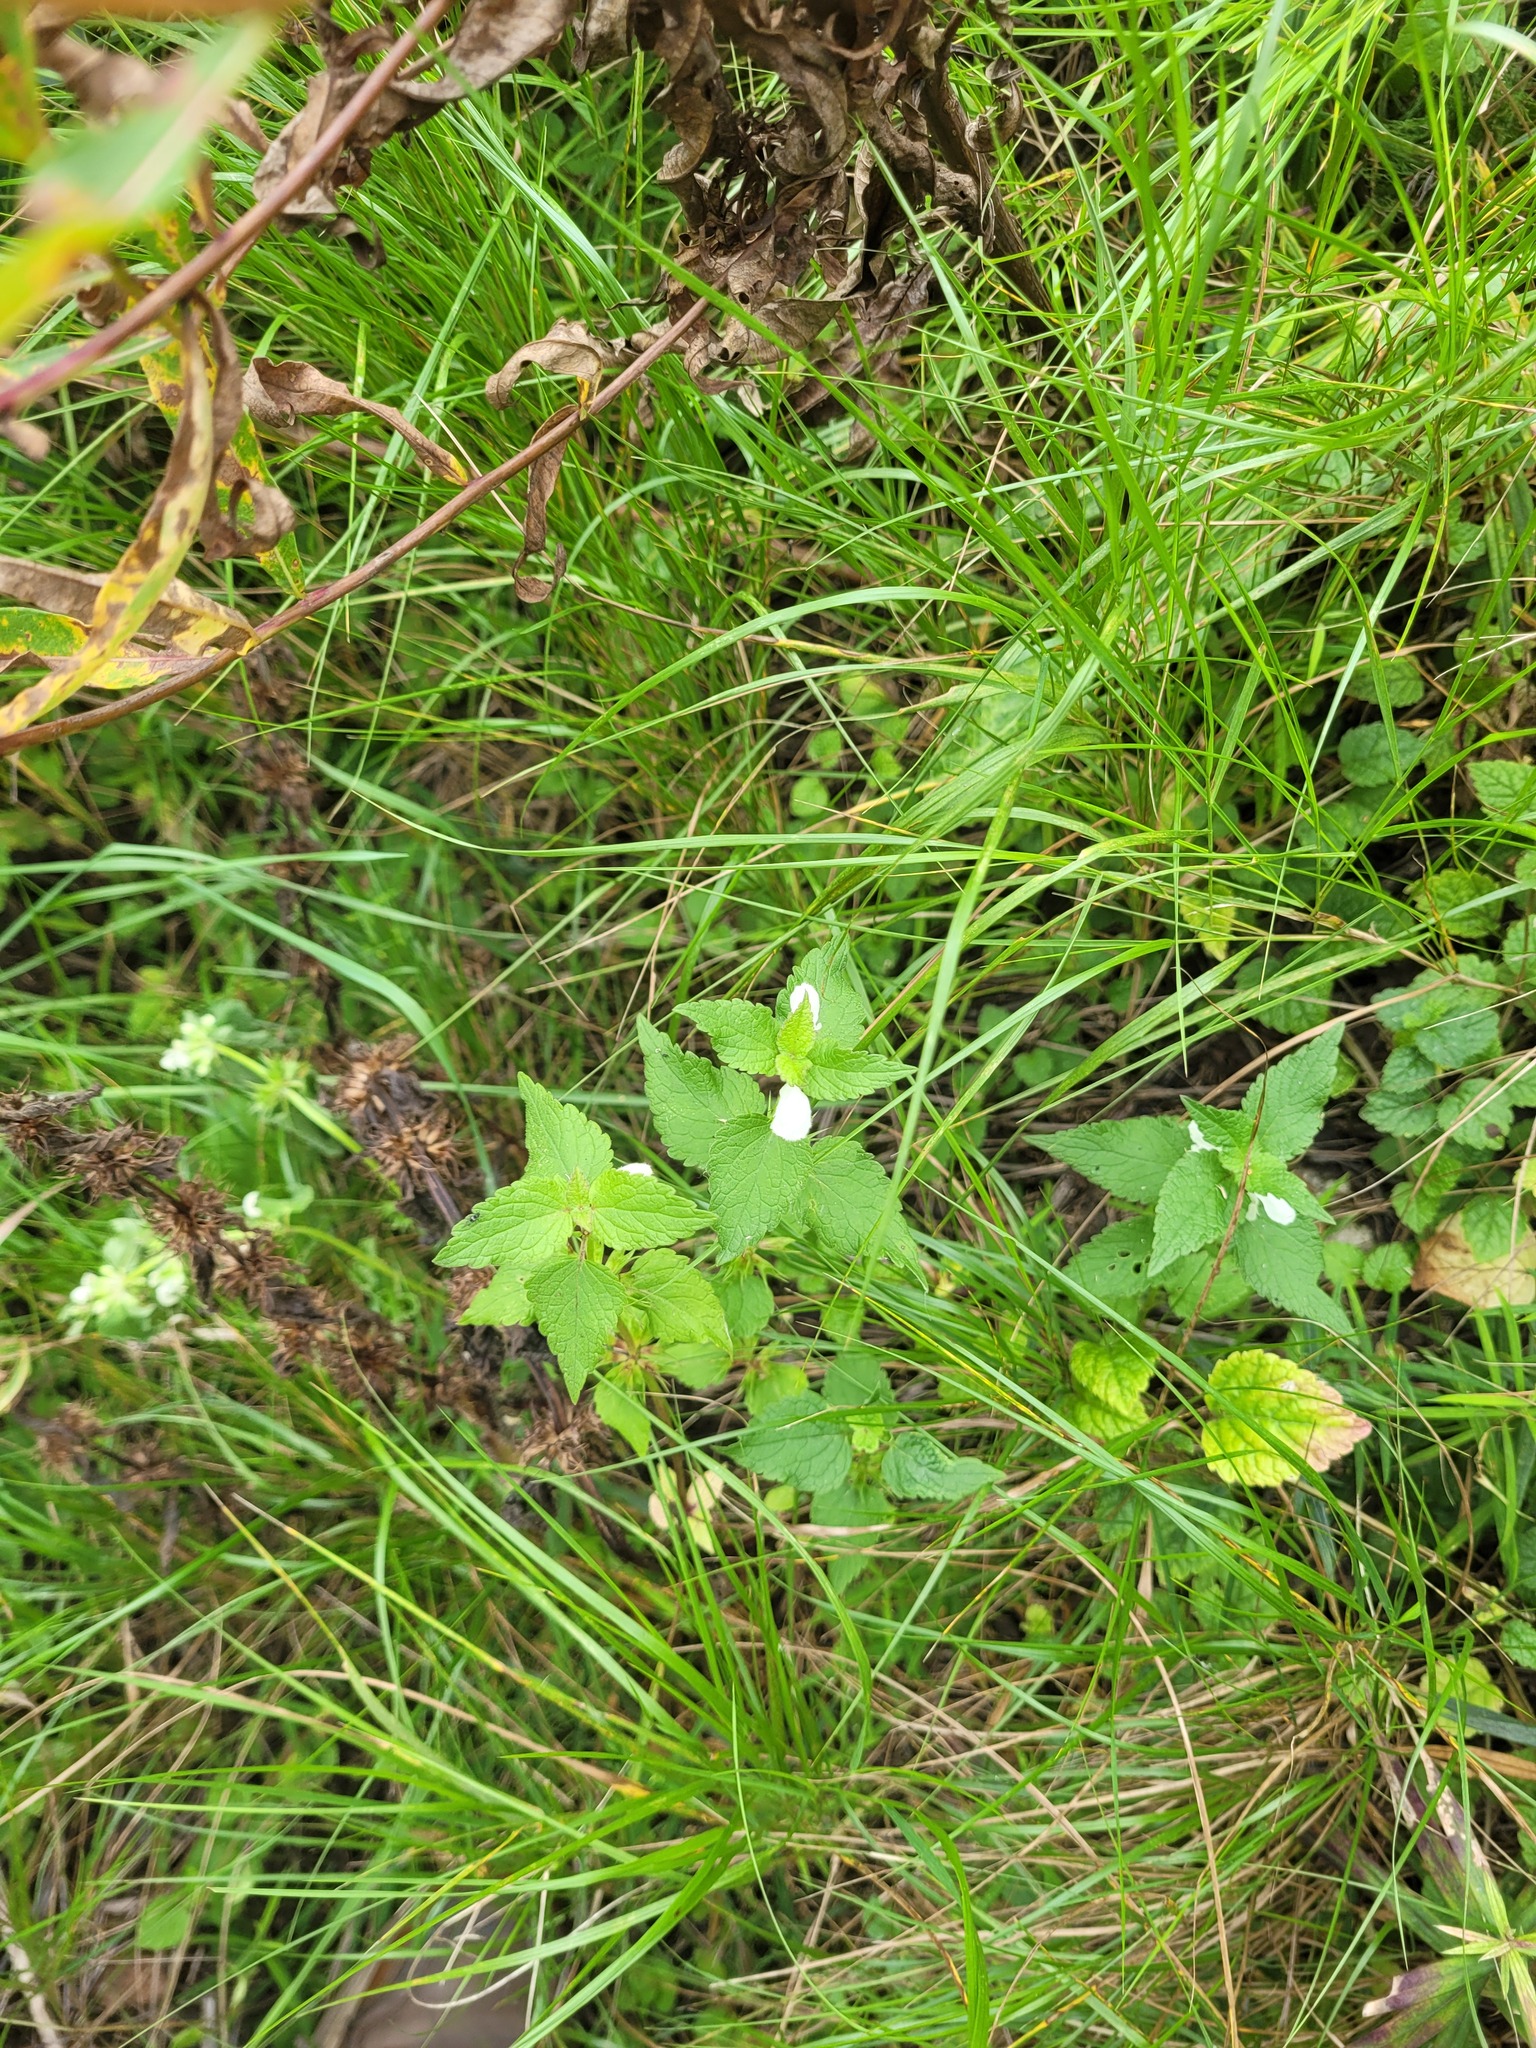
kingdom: Plantae
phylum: Tracheophyta
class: Magnoliopsida
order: Lamiales
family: Lamiaceae
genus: Lamium
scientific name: Lamium album
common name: White dead-nettle
